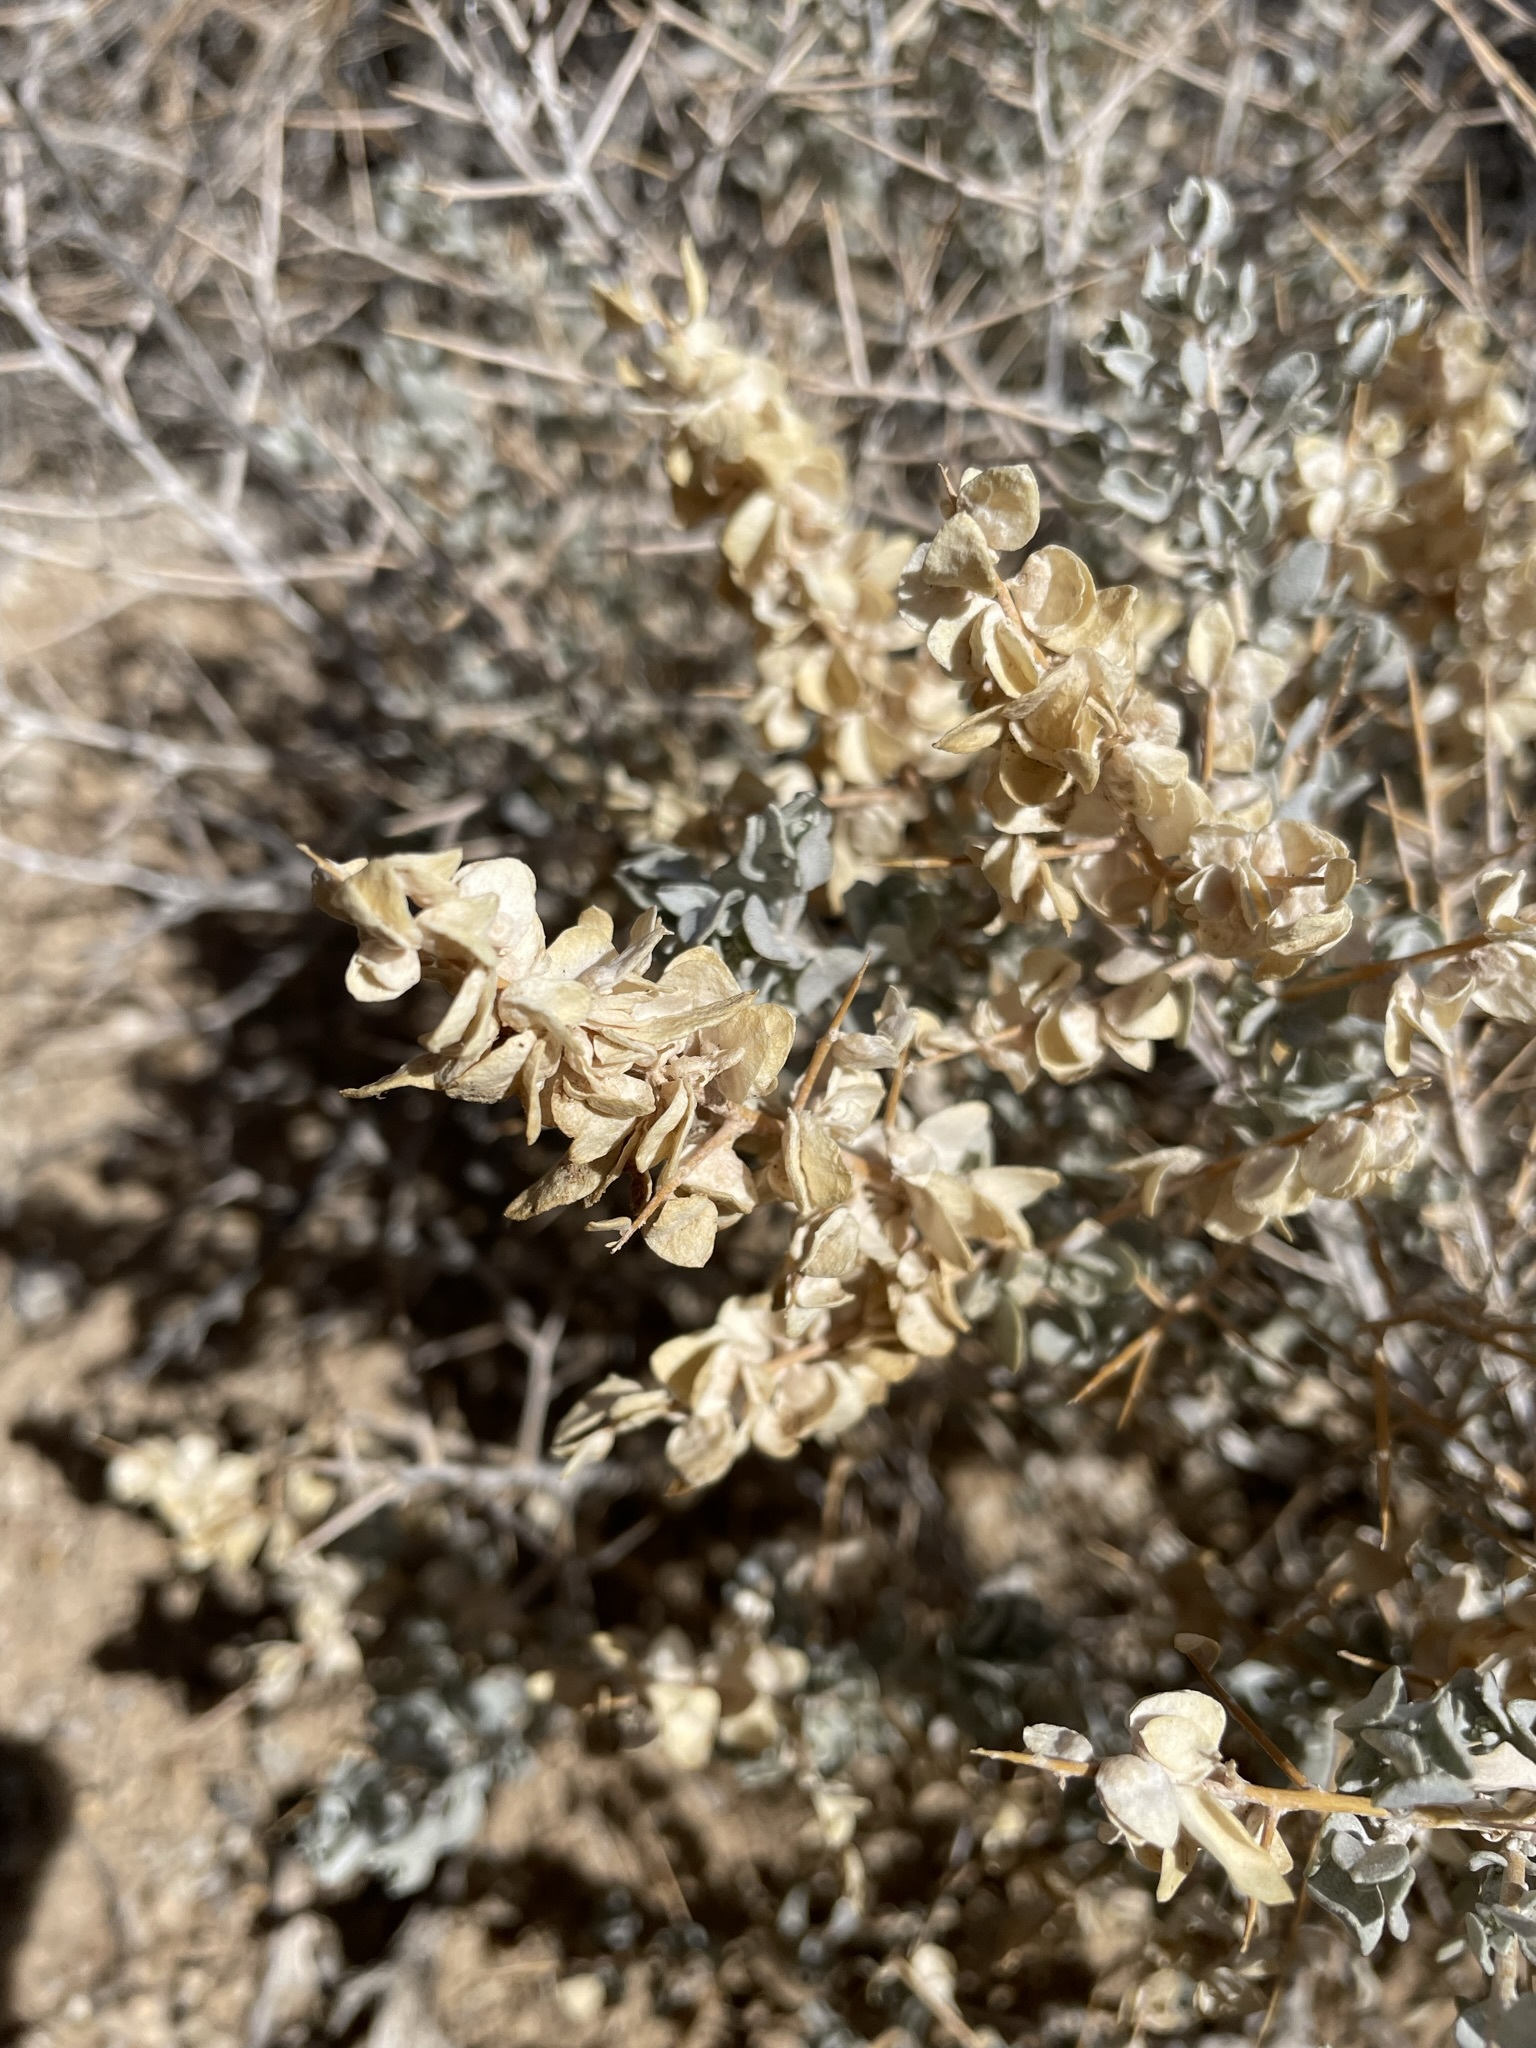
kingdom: Plantae
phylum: Tracheophyta
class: Magnoliopsida
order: Caryophyllales
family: Amaranthaceae
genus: Atriplex
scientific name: Atriplex confertifolia
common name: Shadscale
